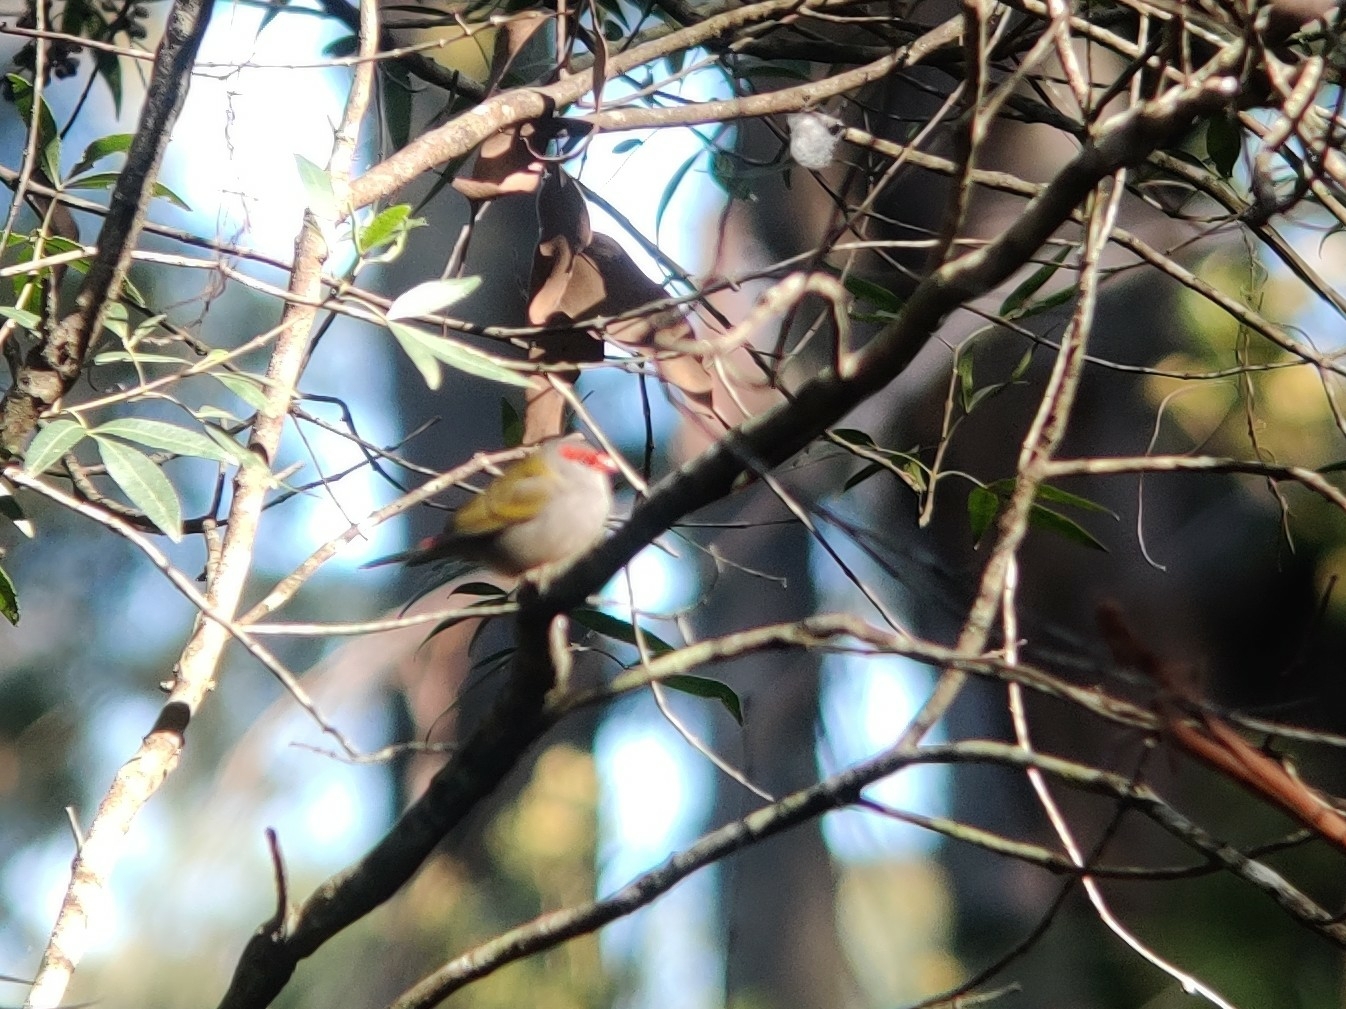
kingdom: Animalia
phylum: Chordata
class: Aves
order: Passeriformes
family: Estrildidae
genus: Neochmia
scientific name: Neochmia temporalis
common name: Red-browed finch
